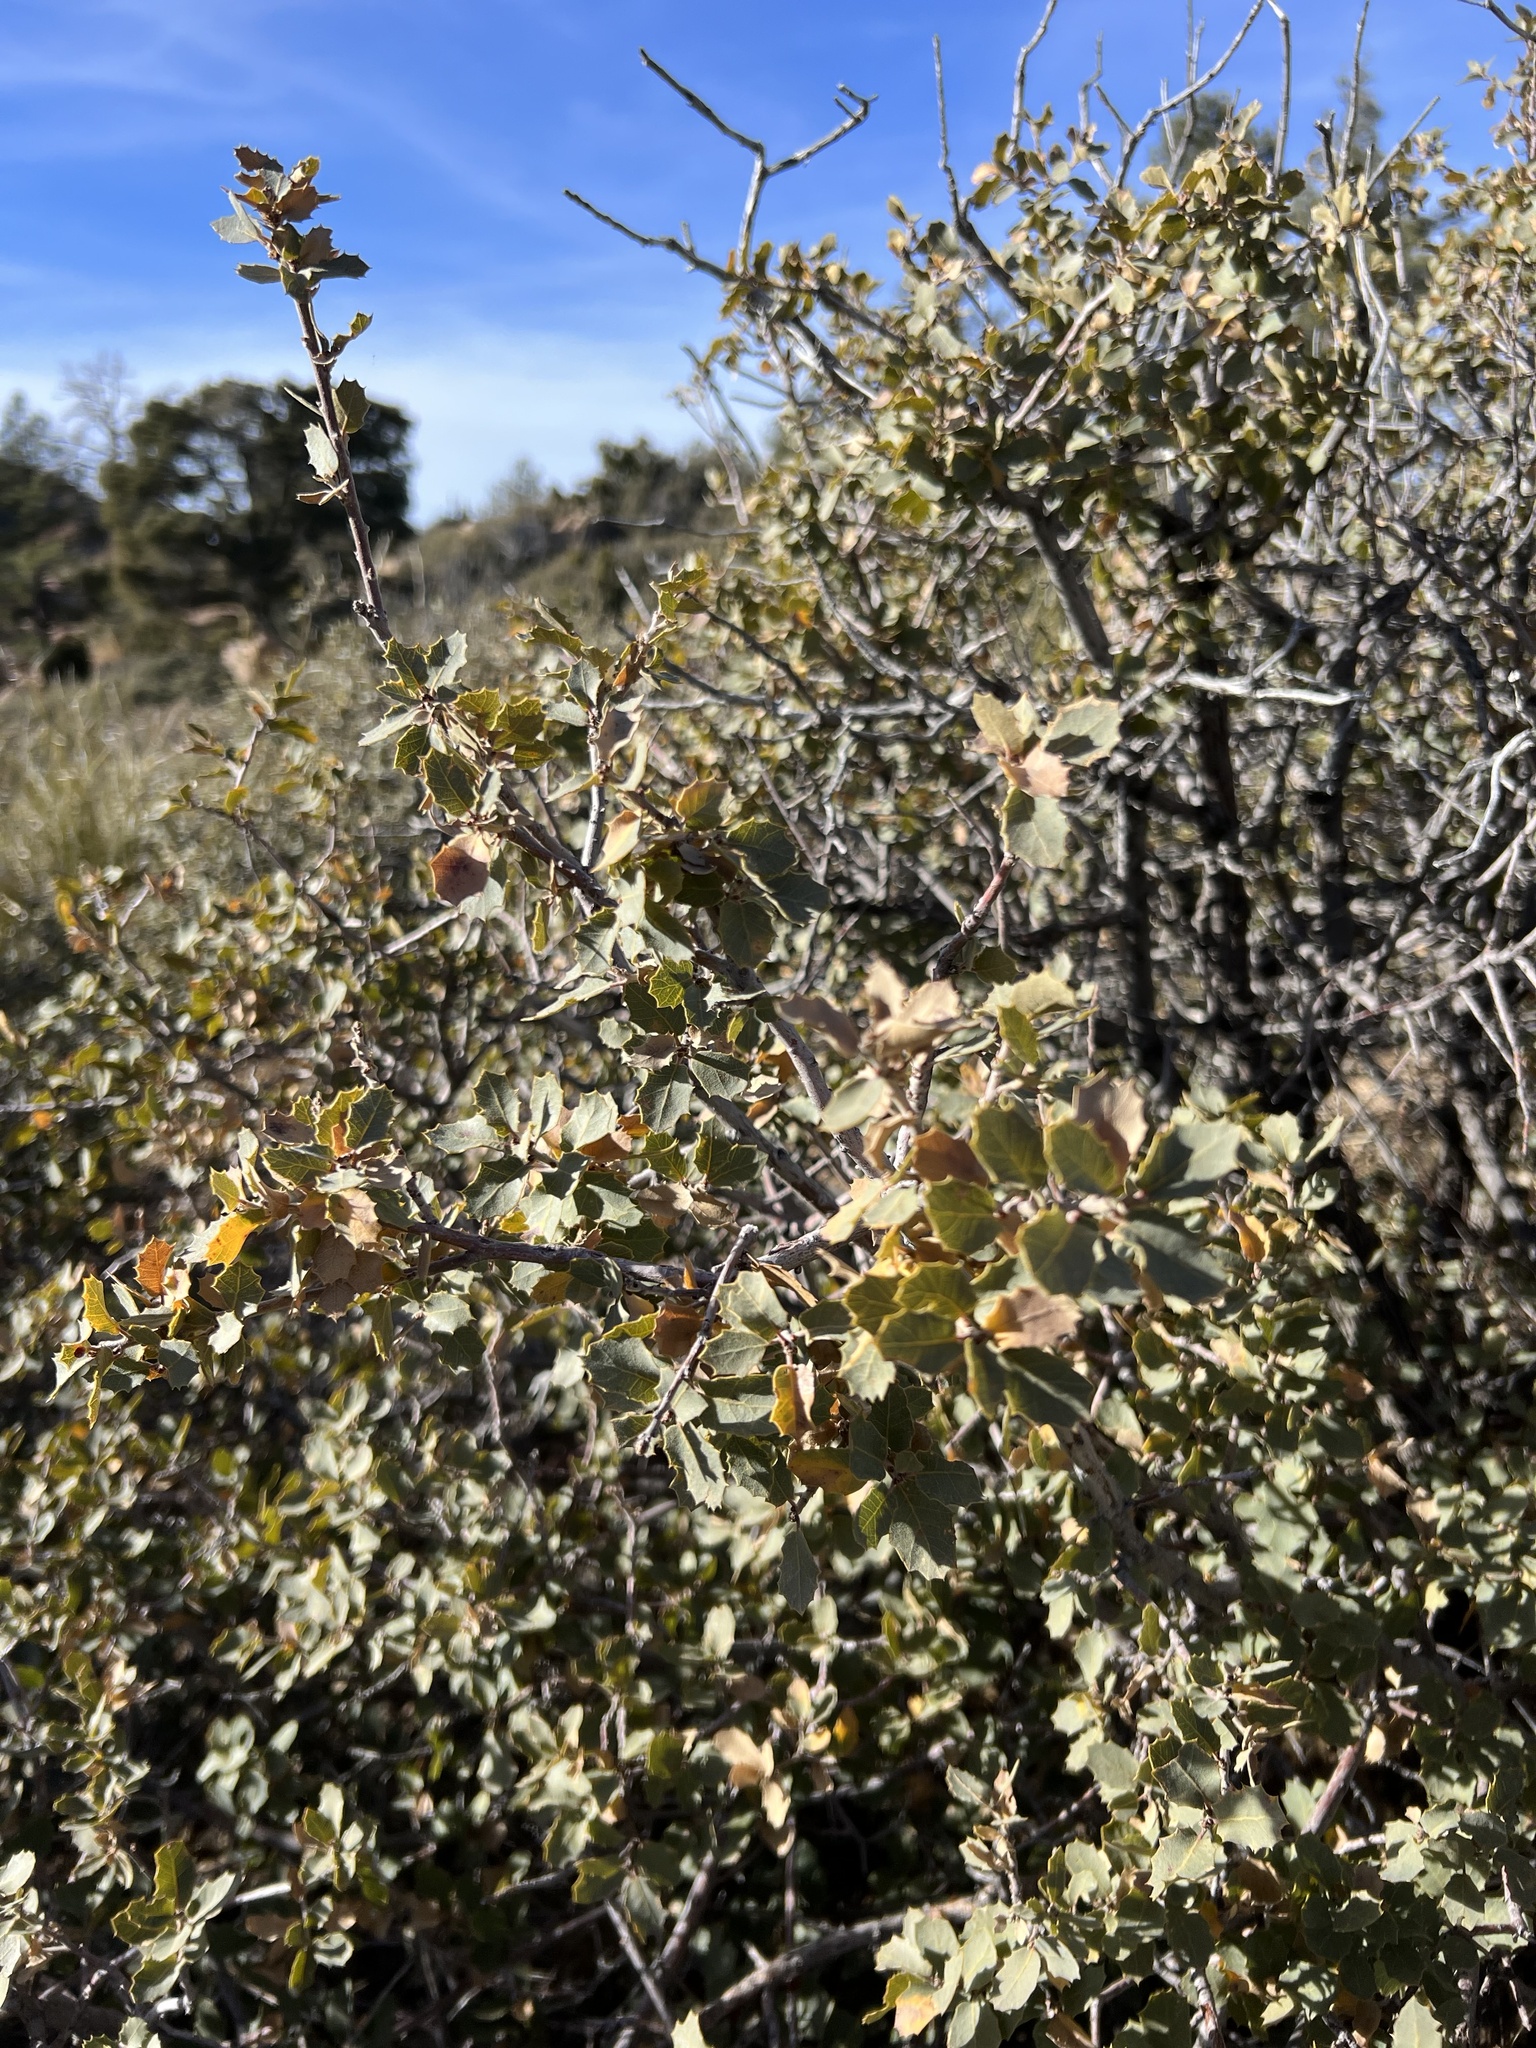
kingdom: Plantae
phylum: Tracheophyta
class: Magnoliopsida
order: Fagales
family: Fagaceae
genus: Quercus
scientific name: Quercus turbinella
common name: Sonoran scrub oak
